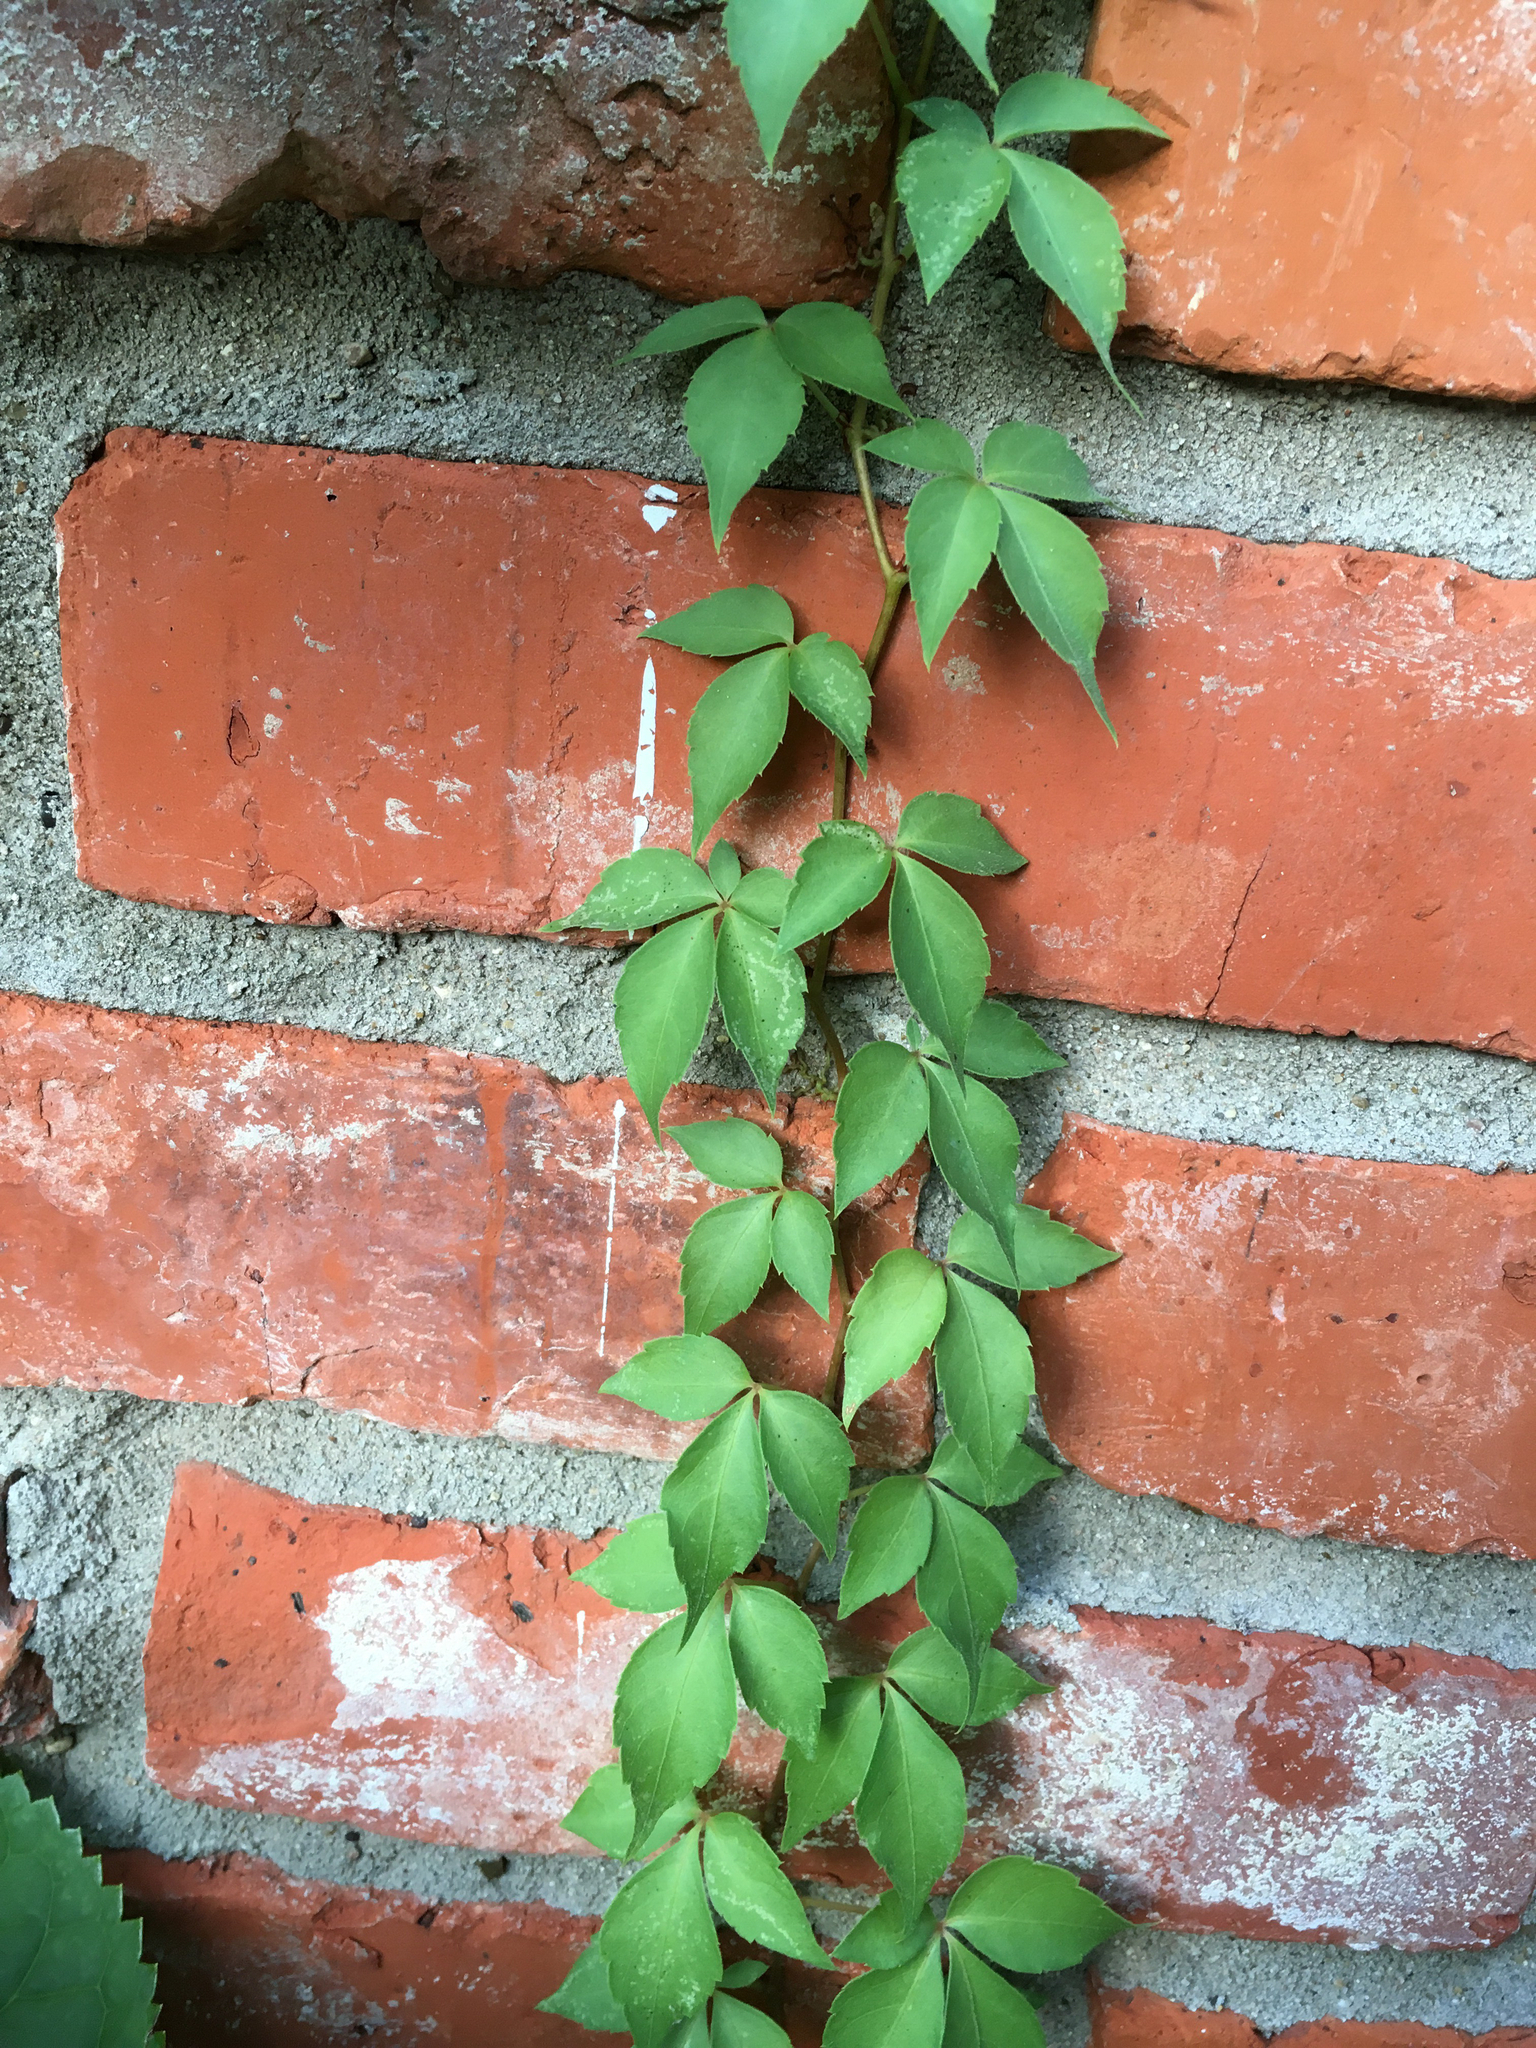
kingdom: Plantae
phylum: Tracheophyta
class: Magnoliopsida
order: Vitales
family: Vitaceae
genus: Parthenocissus
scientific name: Parthenocissus quinquefolia
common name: Virginia-creeper
